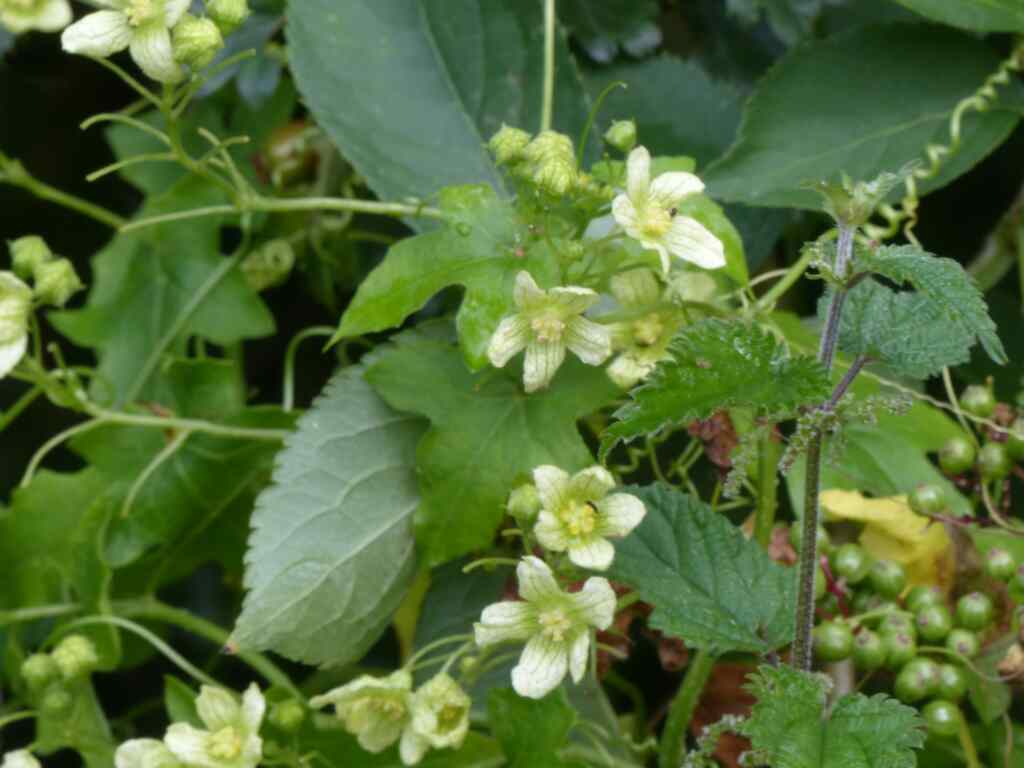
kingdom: Plantae
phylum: Tracheophyta
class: Magnoliopsida
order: Cucurbitales
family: Cucurbitaceae
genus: Bryonia
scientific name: Bryonia cretica
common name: Cretan bryony
